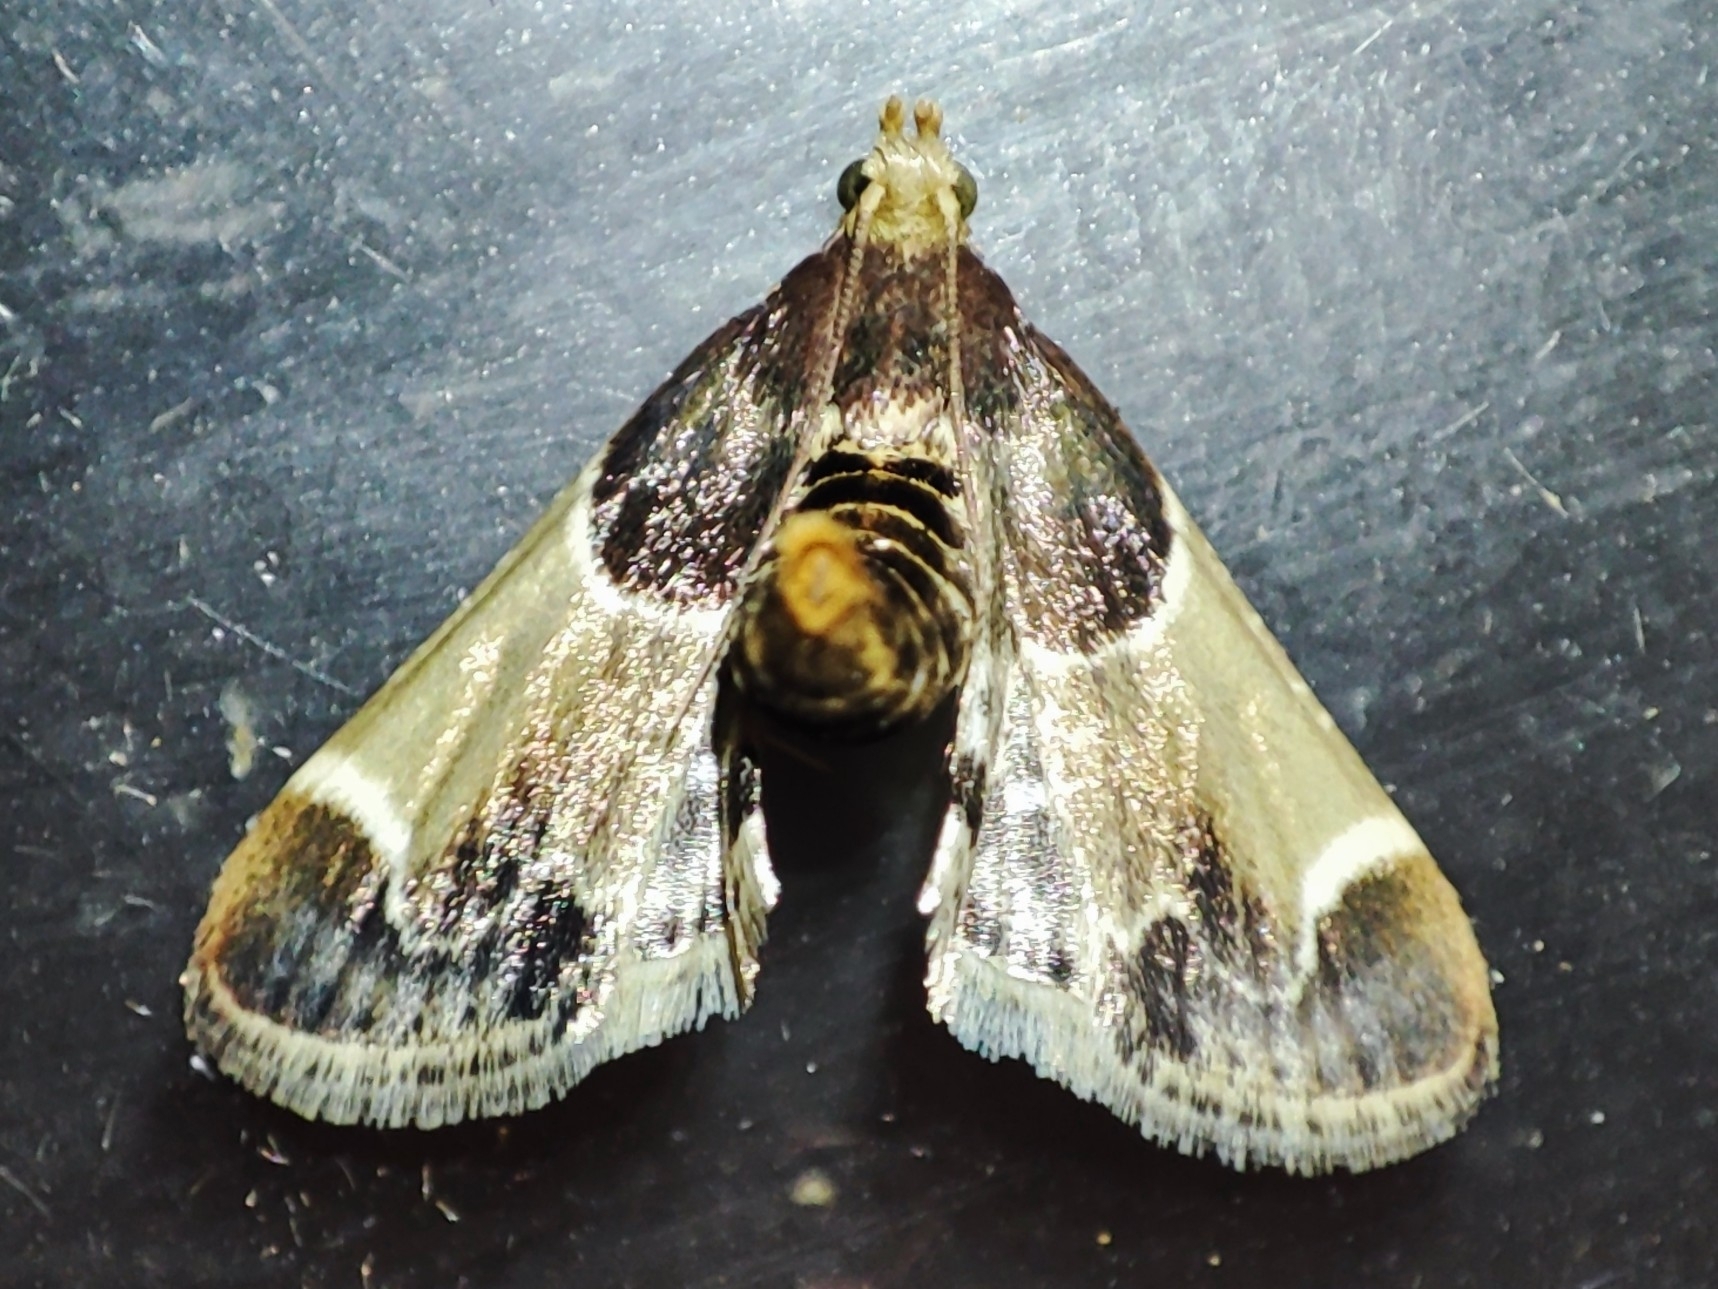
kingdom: Animalia
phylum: Arthropoda
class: Insecta
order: Lepidoptera
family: Pyralidae
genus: Pyralis
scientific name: Pyralis farinalis
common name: Meal moth
